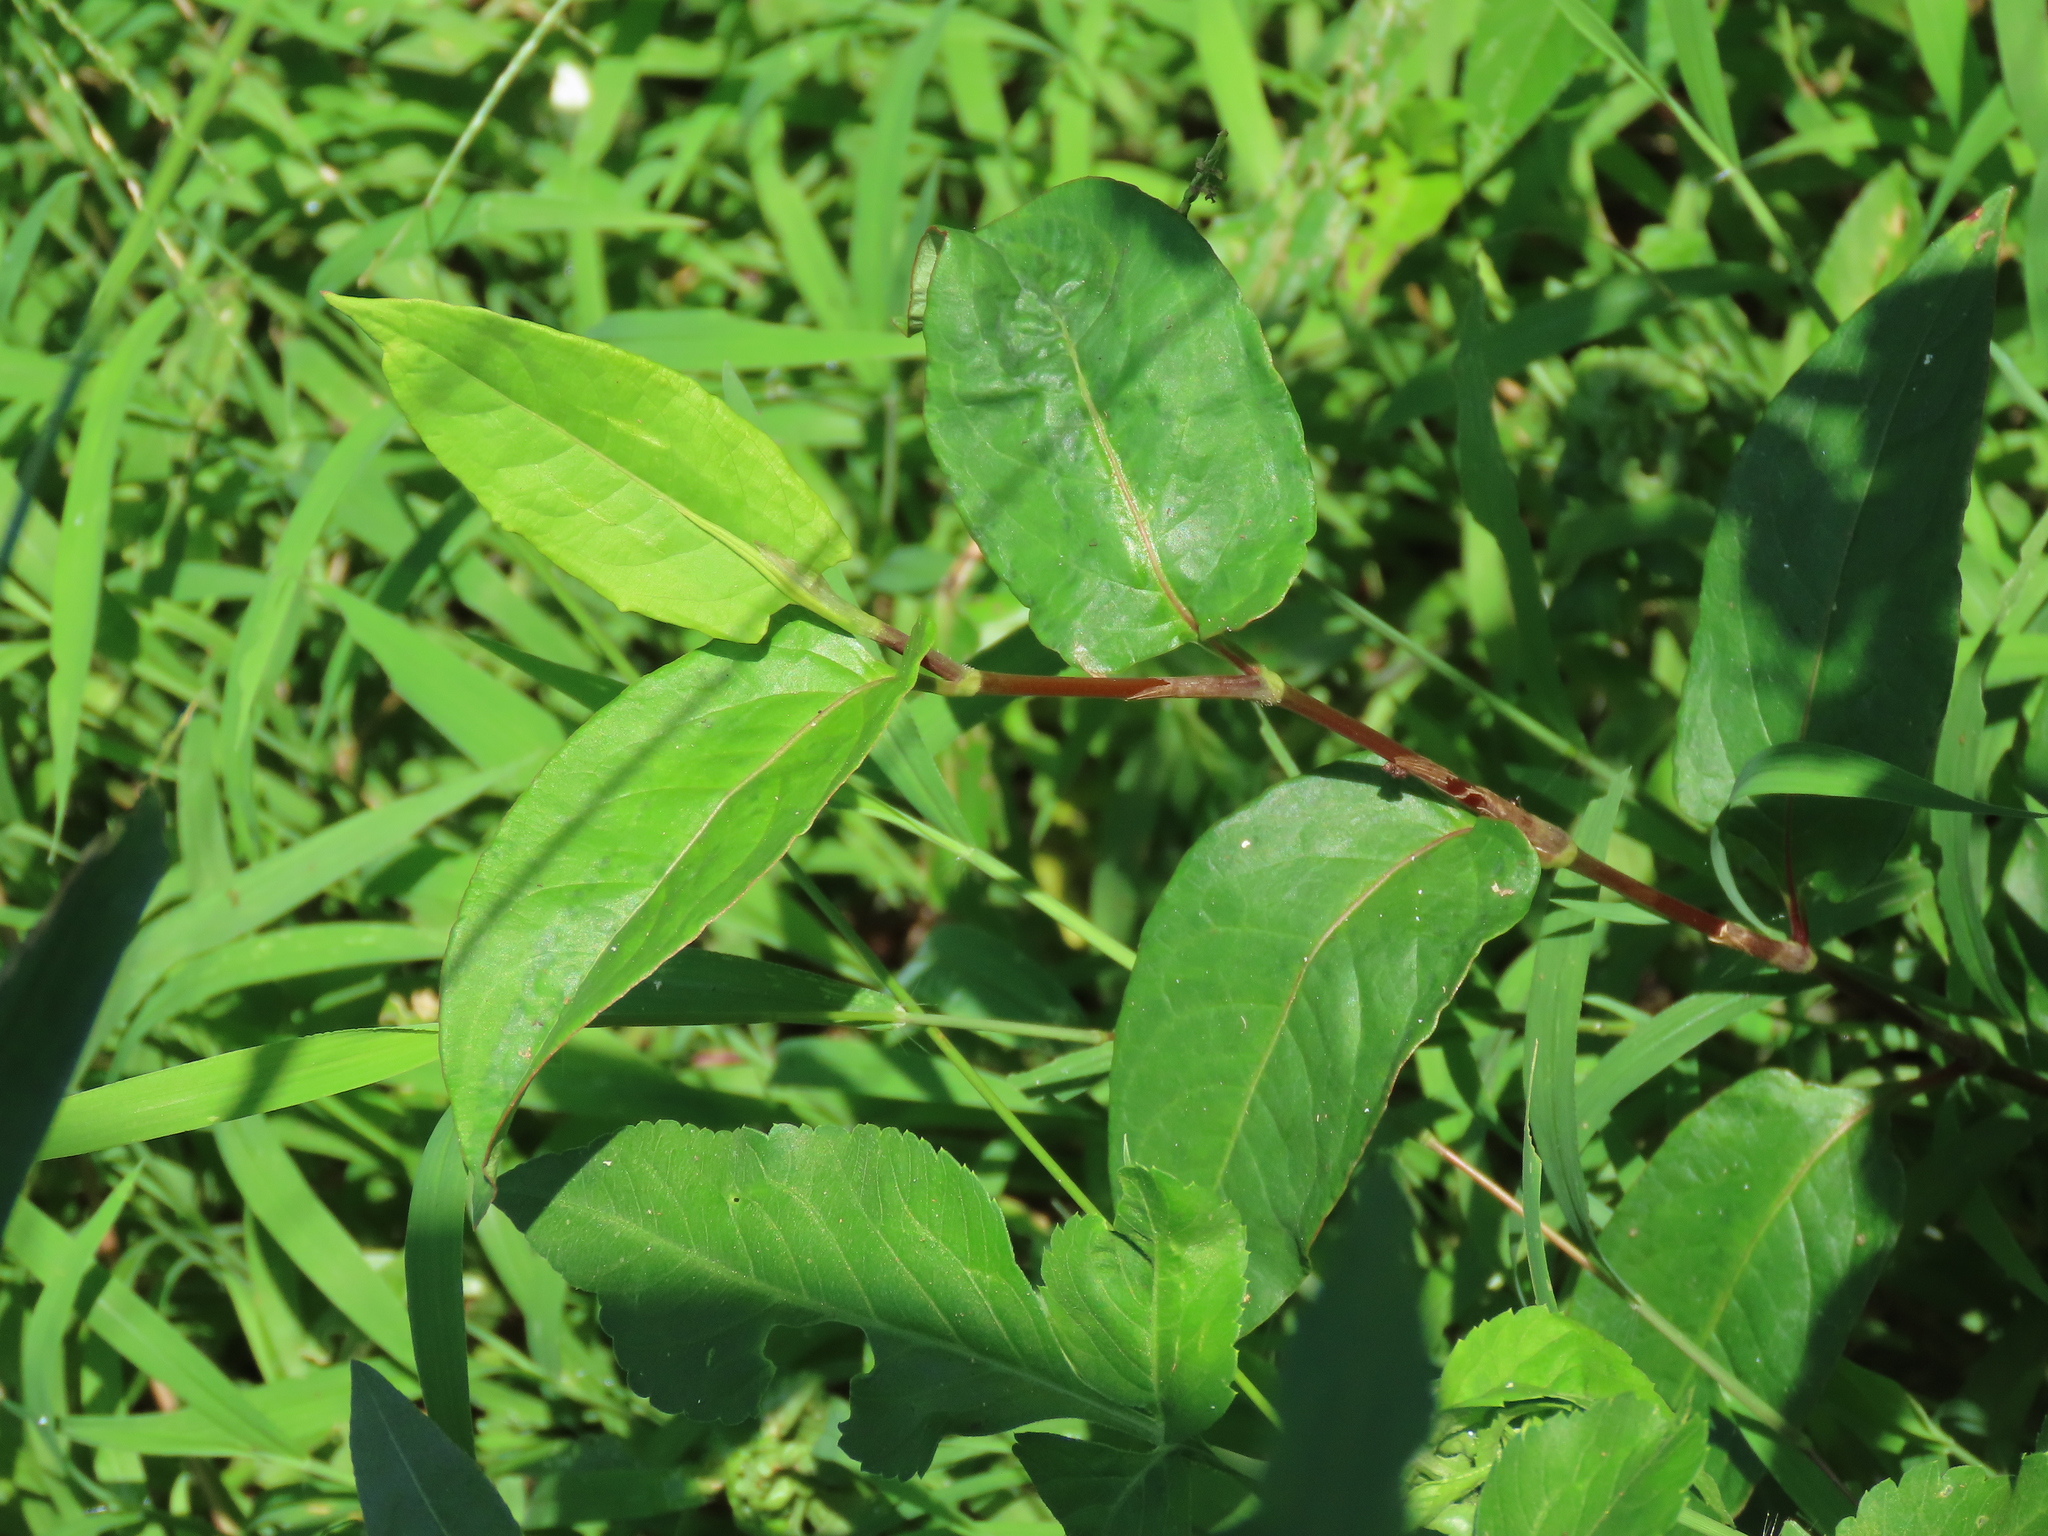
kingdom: Plantae
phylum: Tracheophyta
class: Magnoliopsida
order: Caryophyllales
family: Polygonaceae
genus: Persicaria
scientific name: Persicaria chinensis
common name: Chinese knotweed
